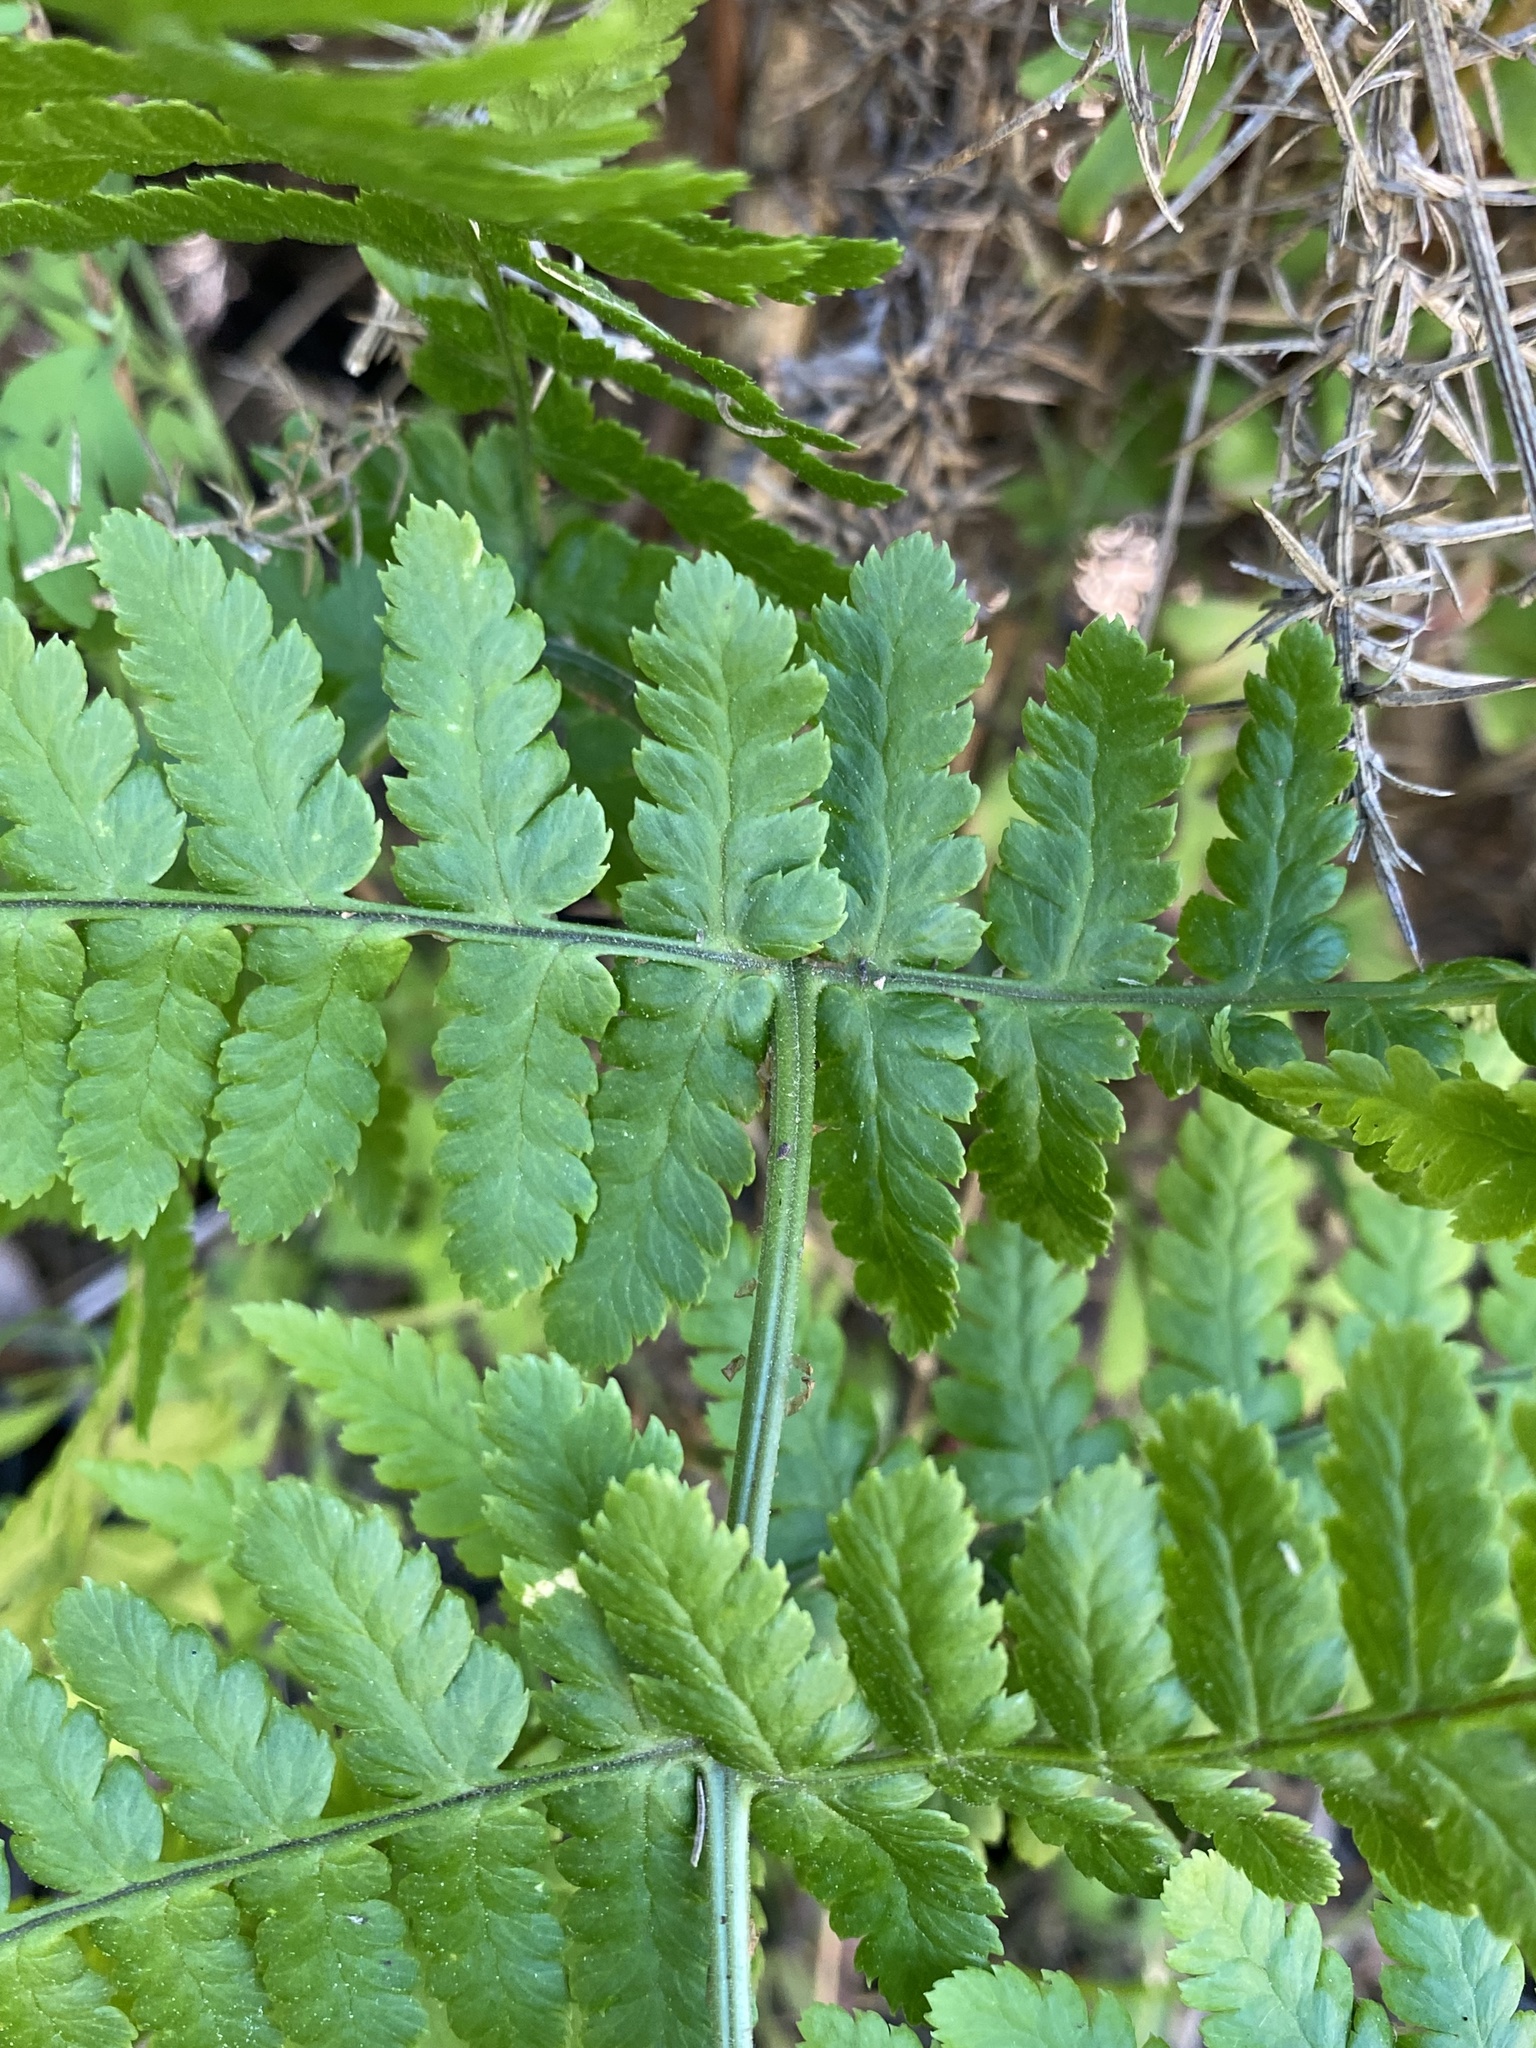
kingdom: Plantae
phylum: Tracheophyta
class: Polypodiopsida
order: Polypodiales
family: Dryopteridaceae
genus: Dryopteris
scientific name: Dryopteris oligodonta
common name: Canarian male-fern
